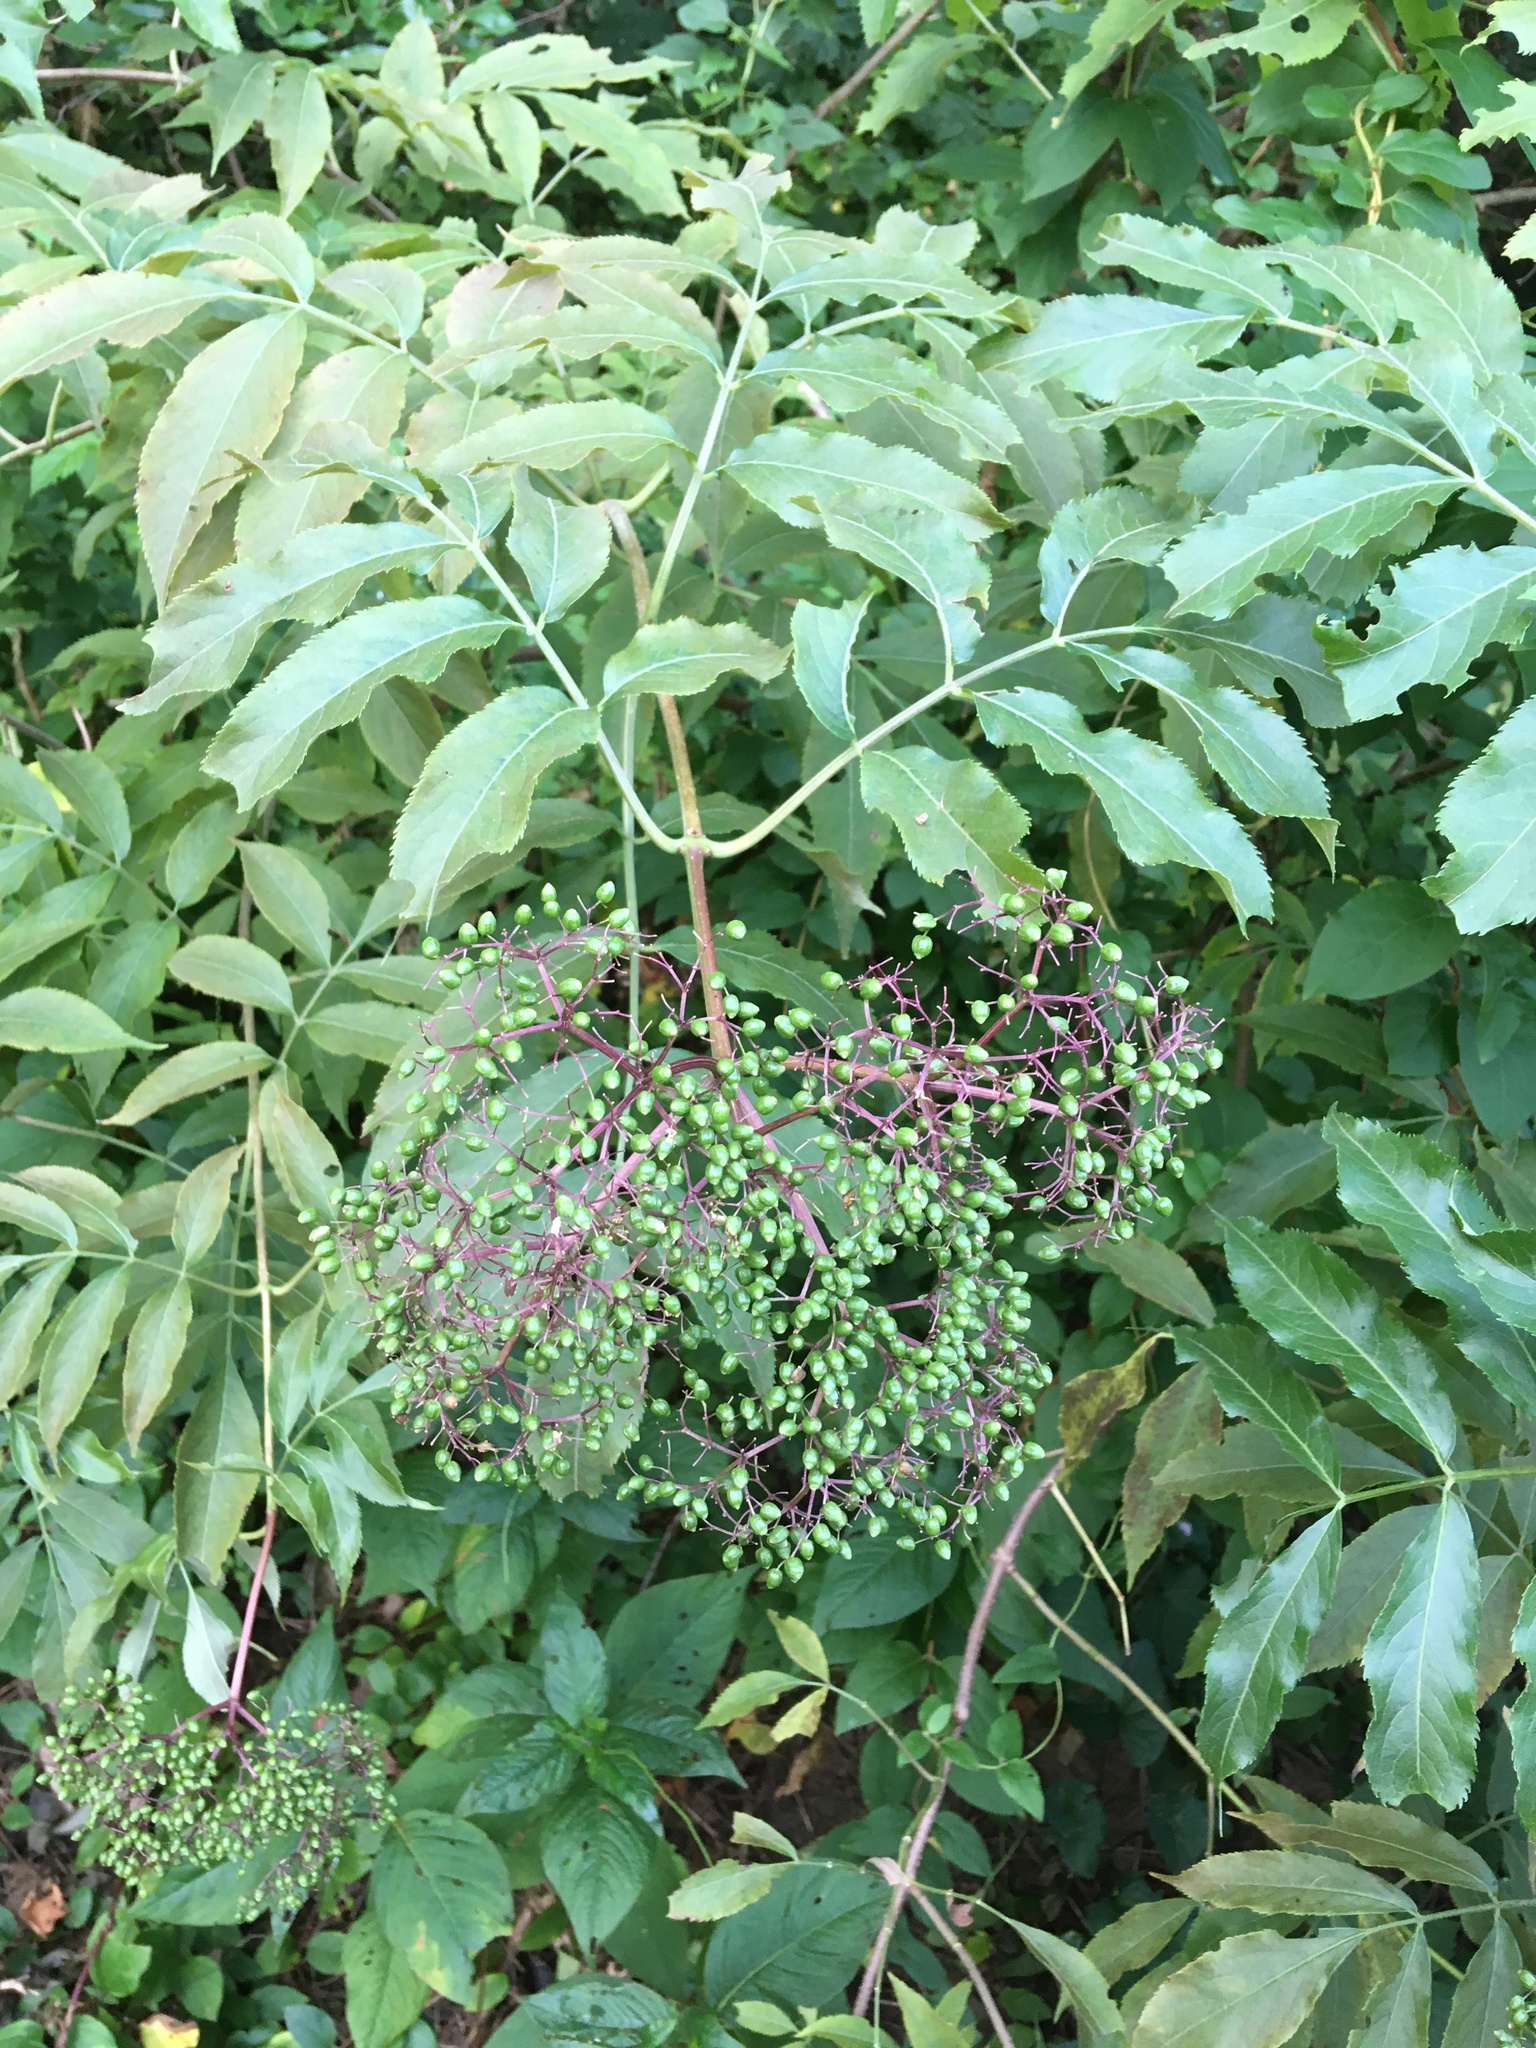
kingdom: Plantae
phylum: Tracheophyta
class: Magnoliopsida
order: Dipsacales
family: Viburnaceae
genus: Sambucus
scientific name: Sambucus canadensis
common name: American elder
